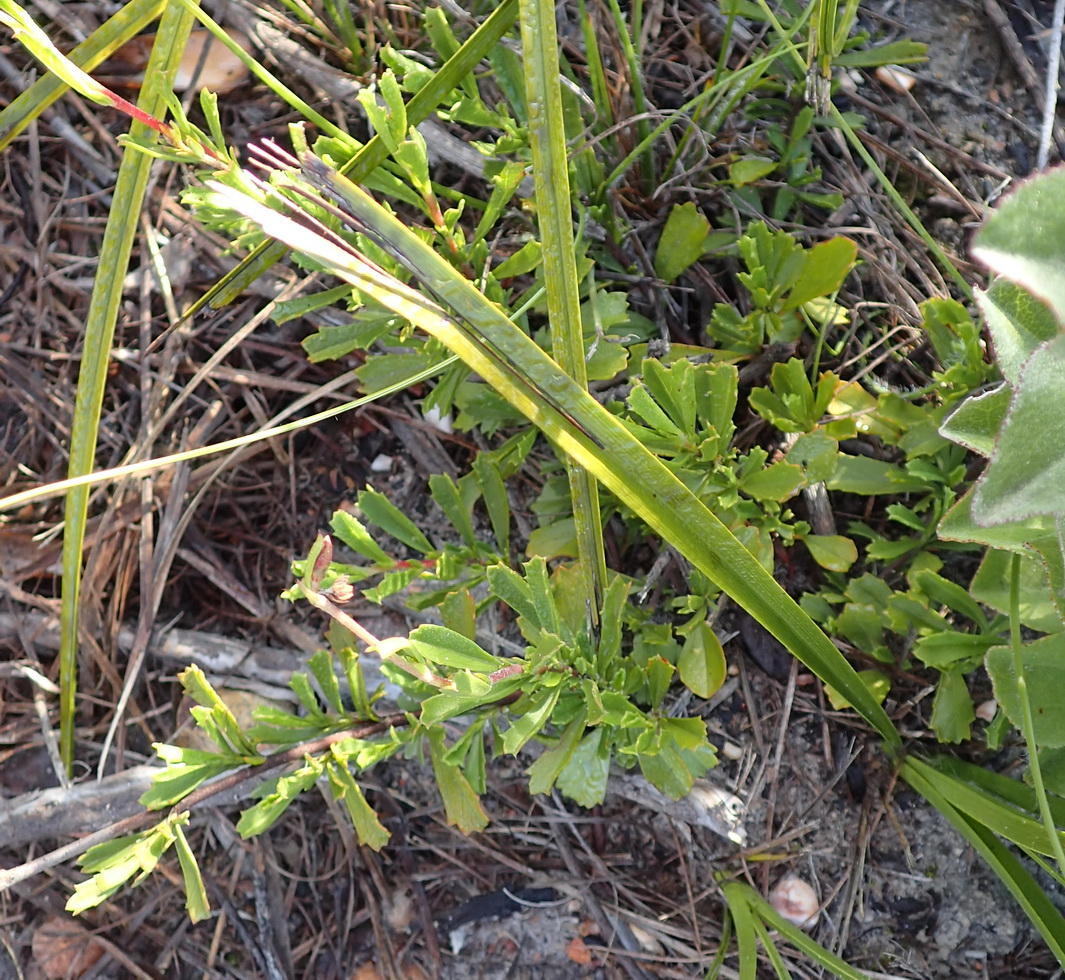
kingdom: Plantae
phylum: Tracheophyta
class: Magnoliopsida
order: Malvales
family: Malvaceae
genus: Hermannia
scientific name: Hermannia flammea
